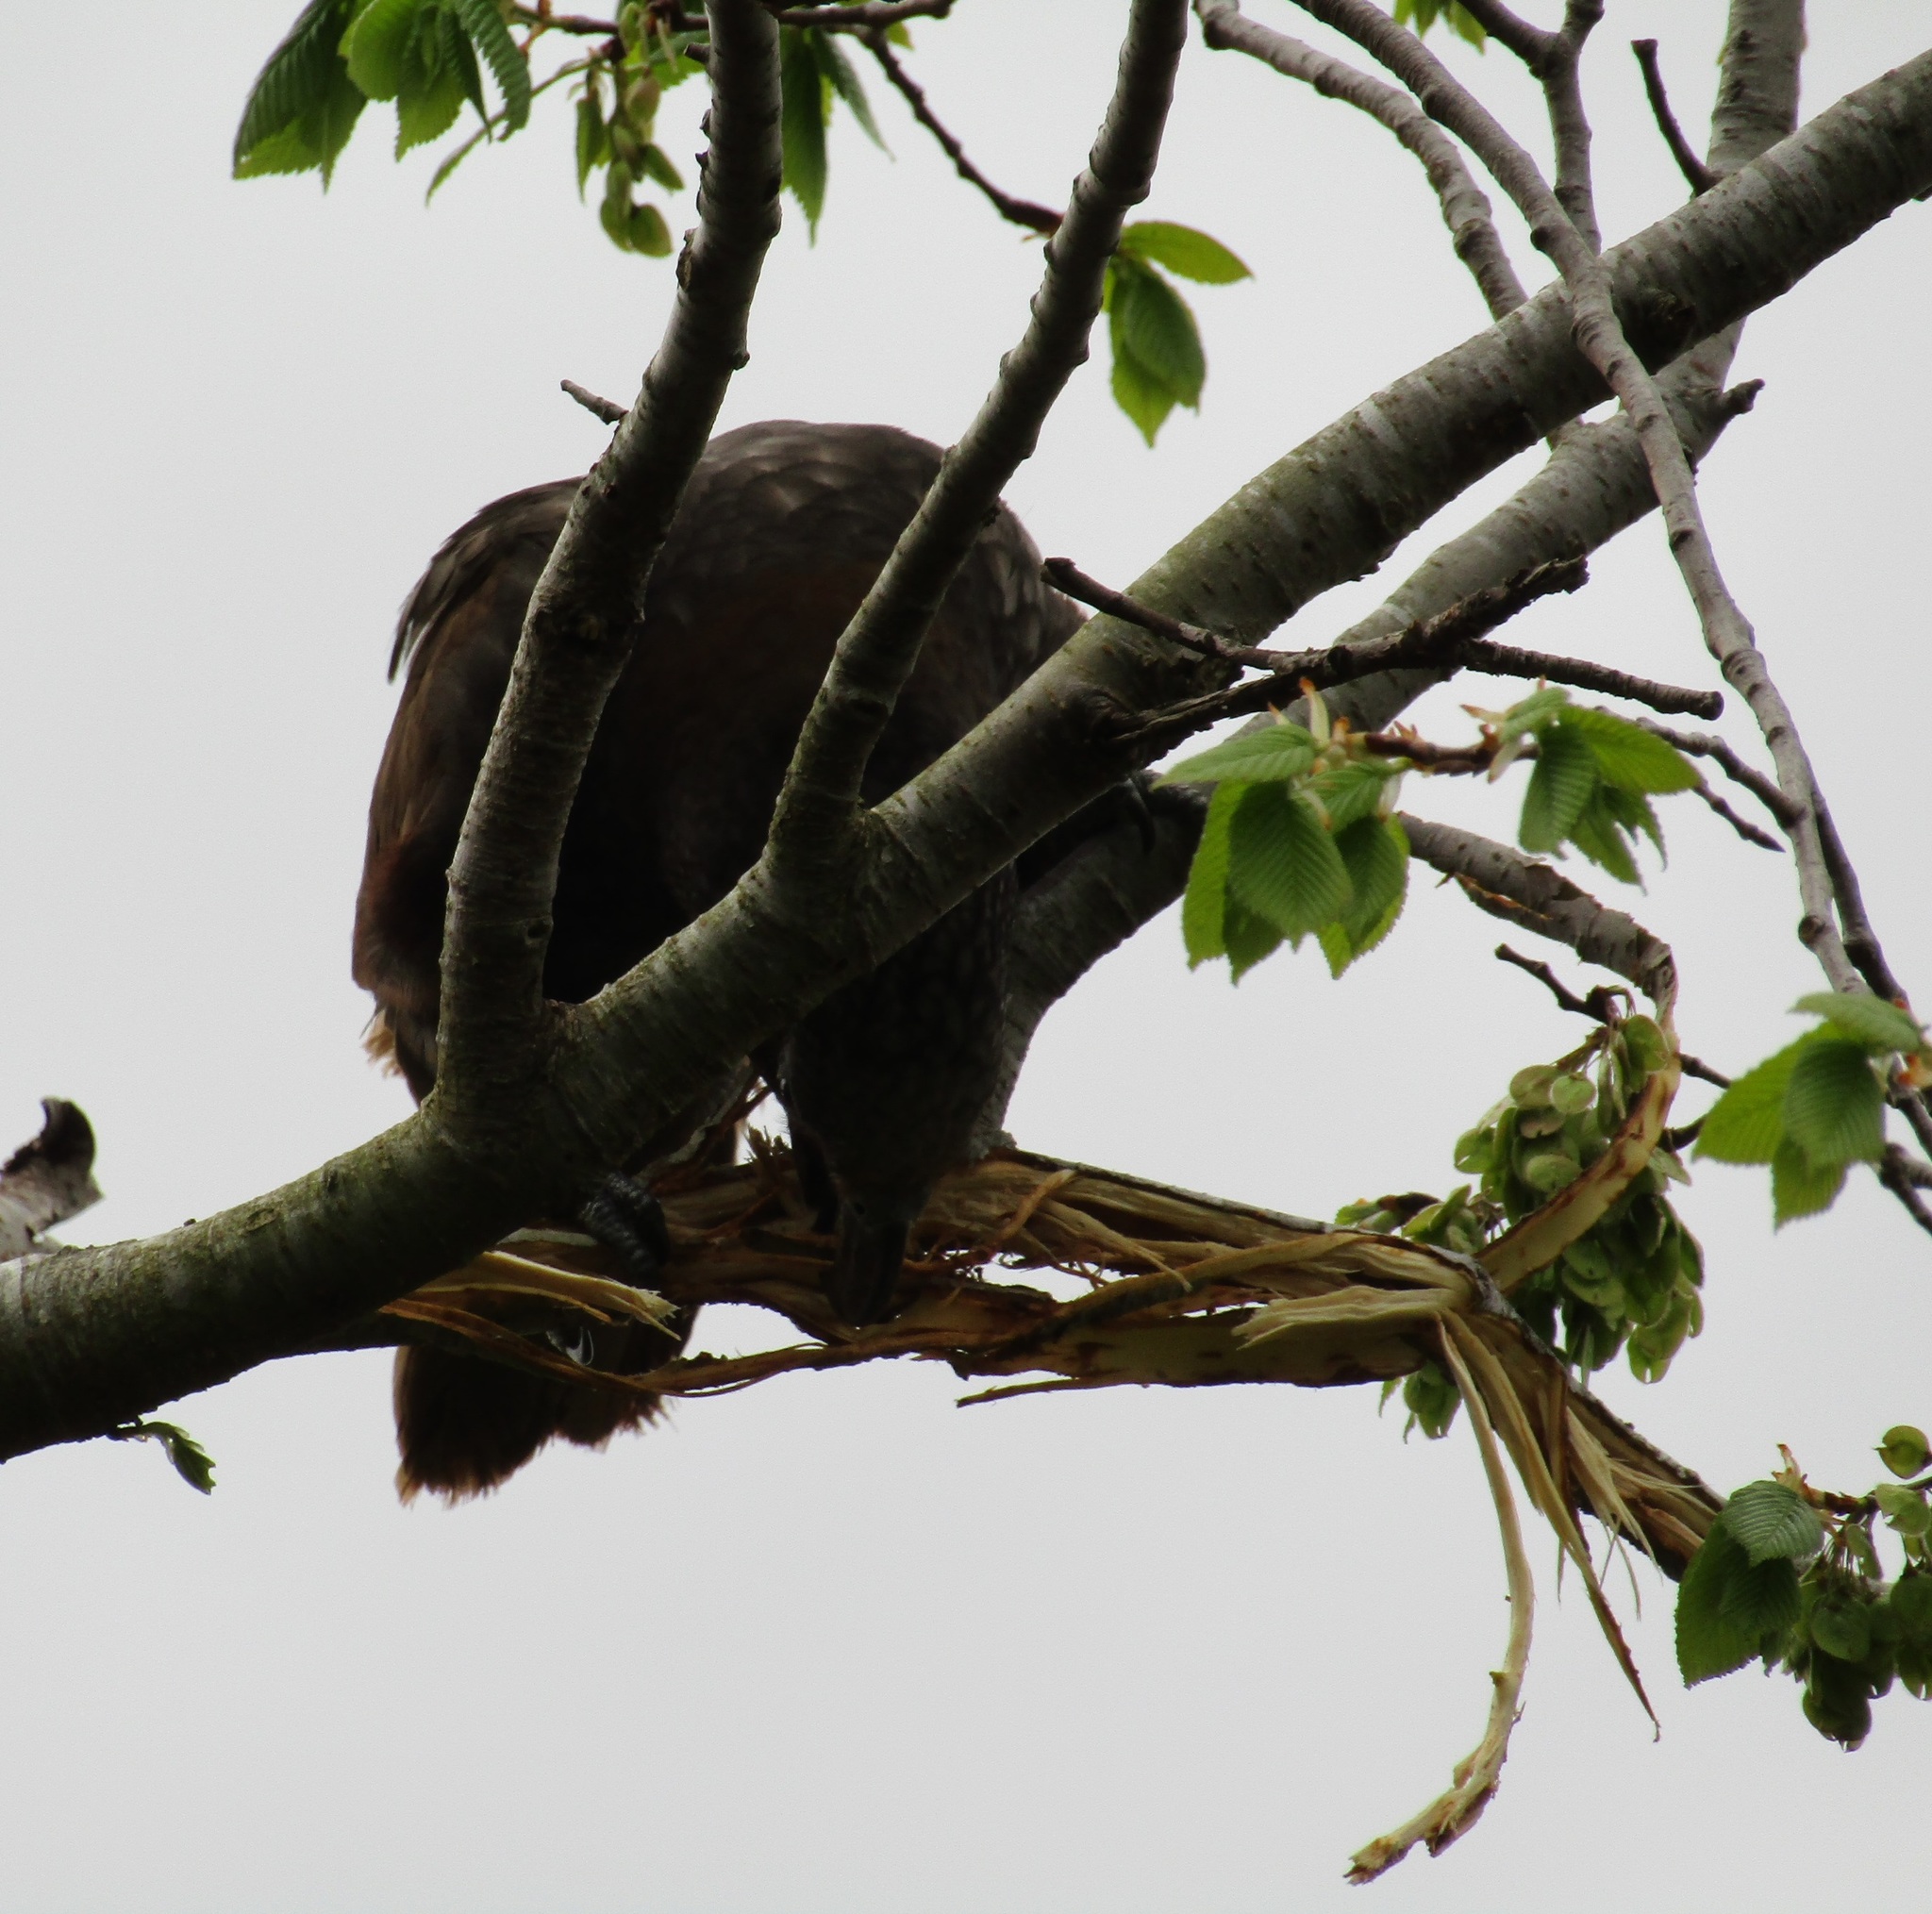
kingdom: Animalia
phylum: Chordata
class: Aves
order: Psittaciformes
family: Psittacidae
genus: Nestor
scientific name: Nestor meridionalis
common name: New zealand kaka
